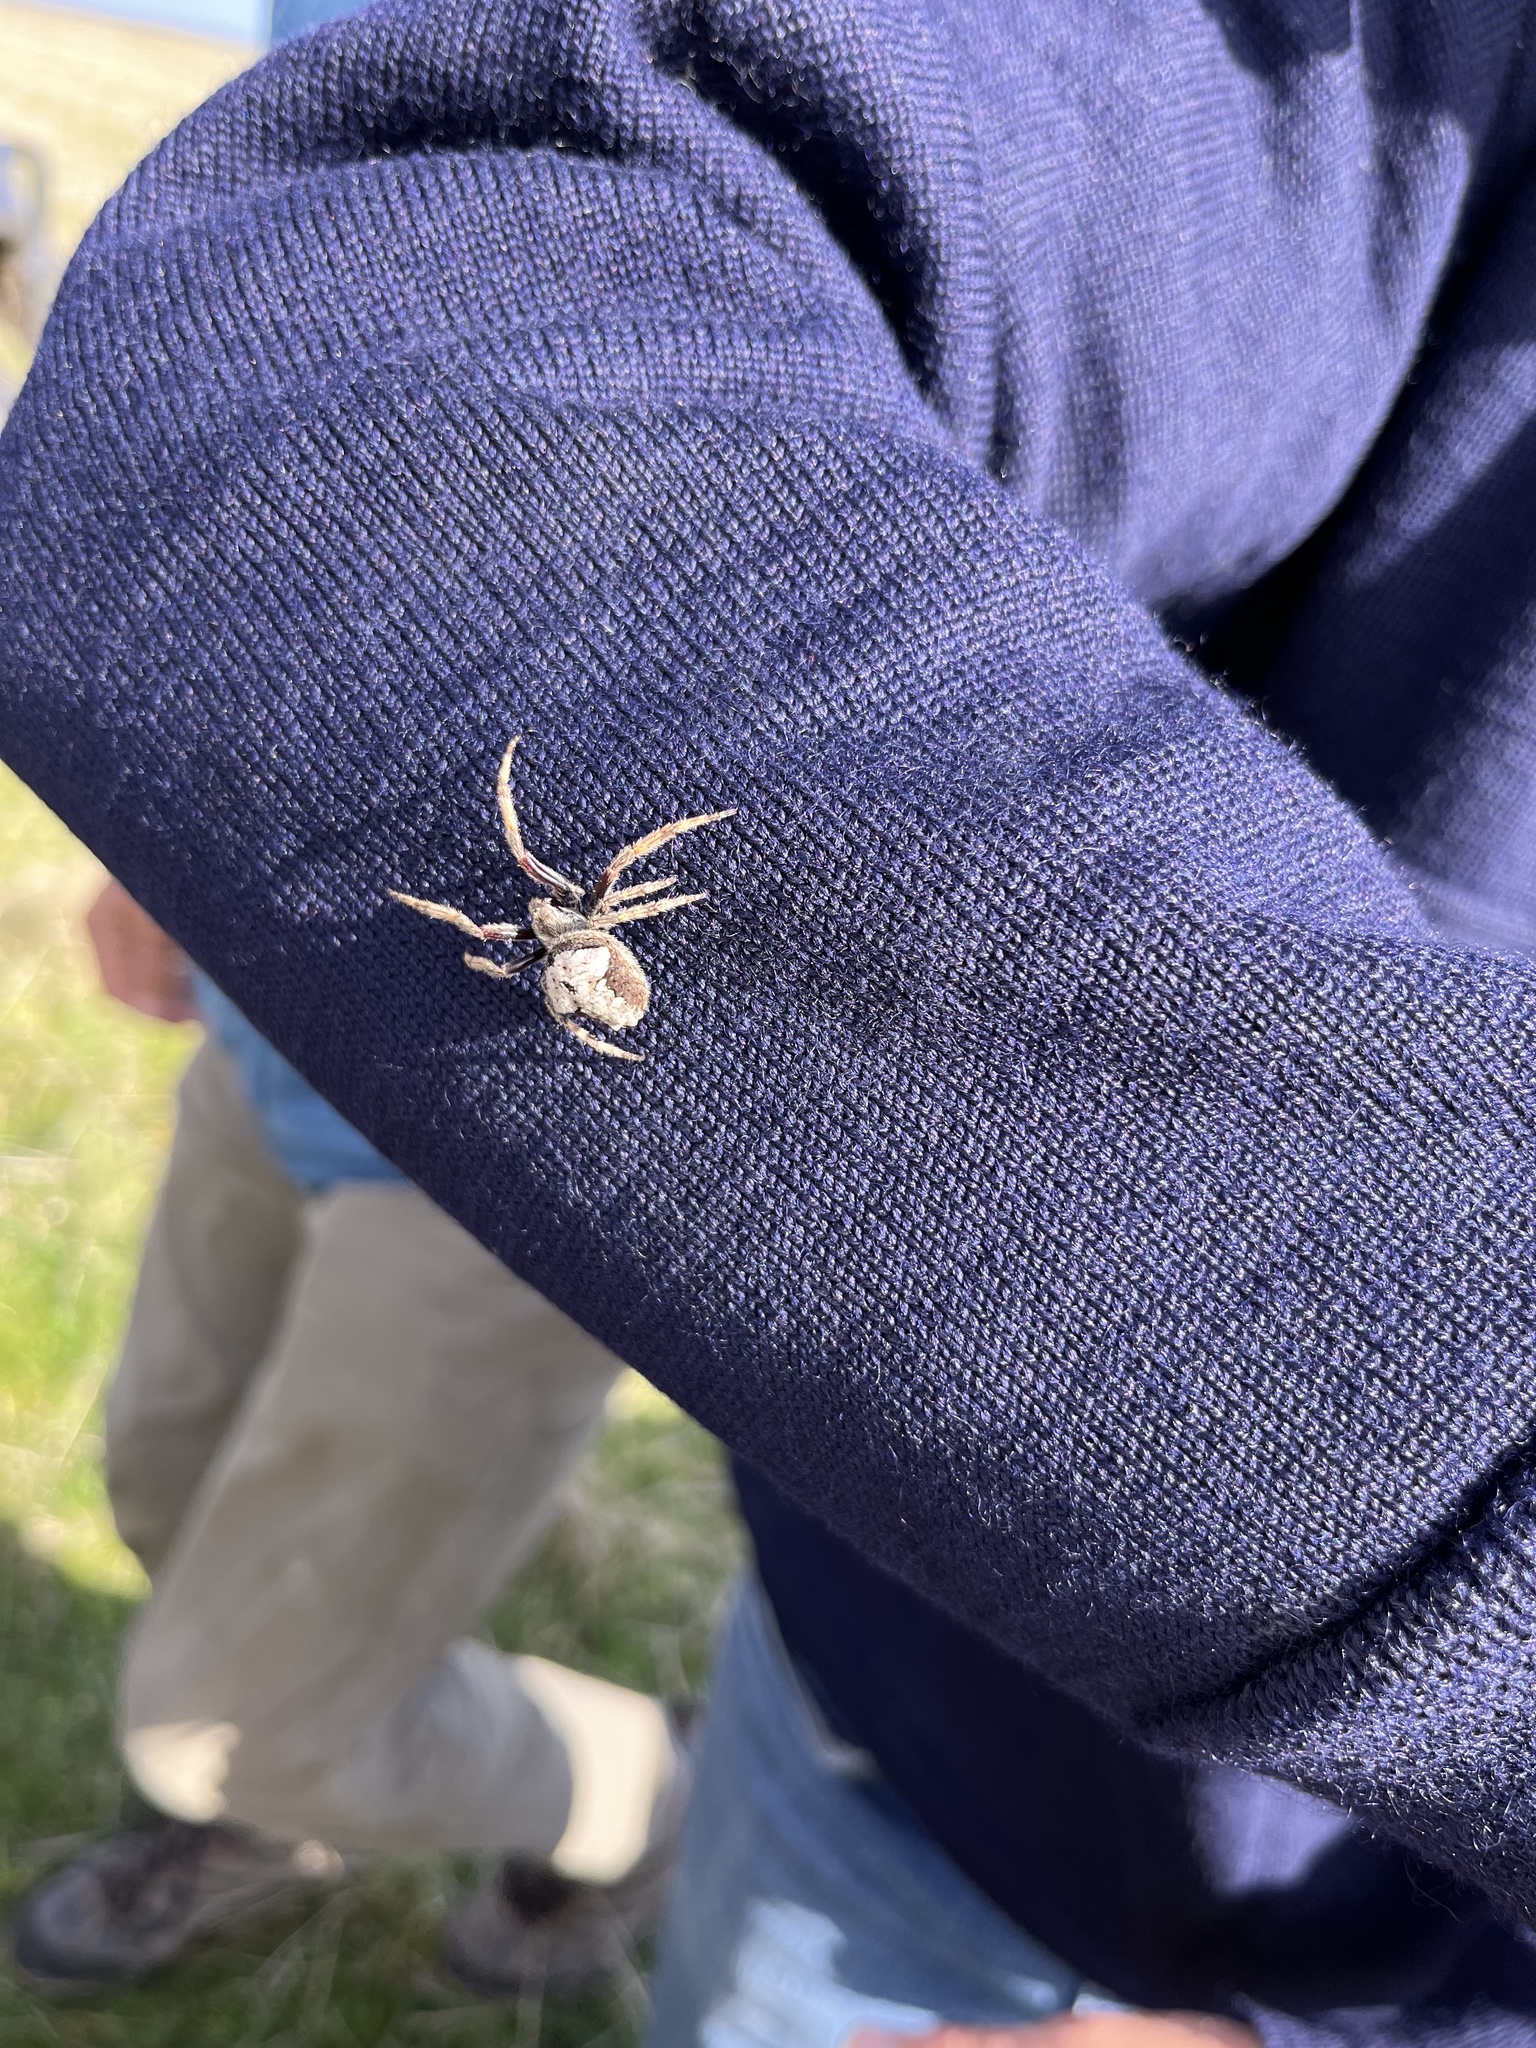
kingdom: Animalia
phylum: Arthropoda
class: Arachnida
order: Araneae
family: Araneidae
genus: Eriophora
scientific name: Eriophora pustulosa
